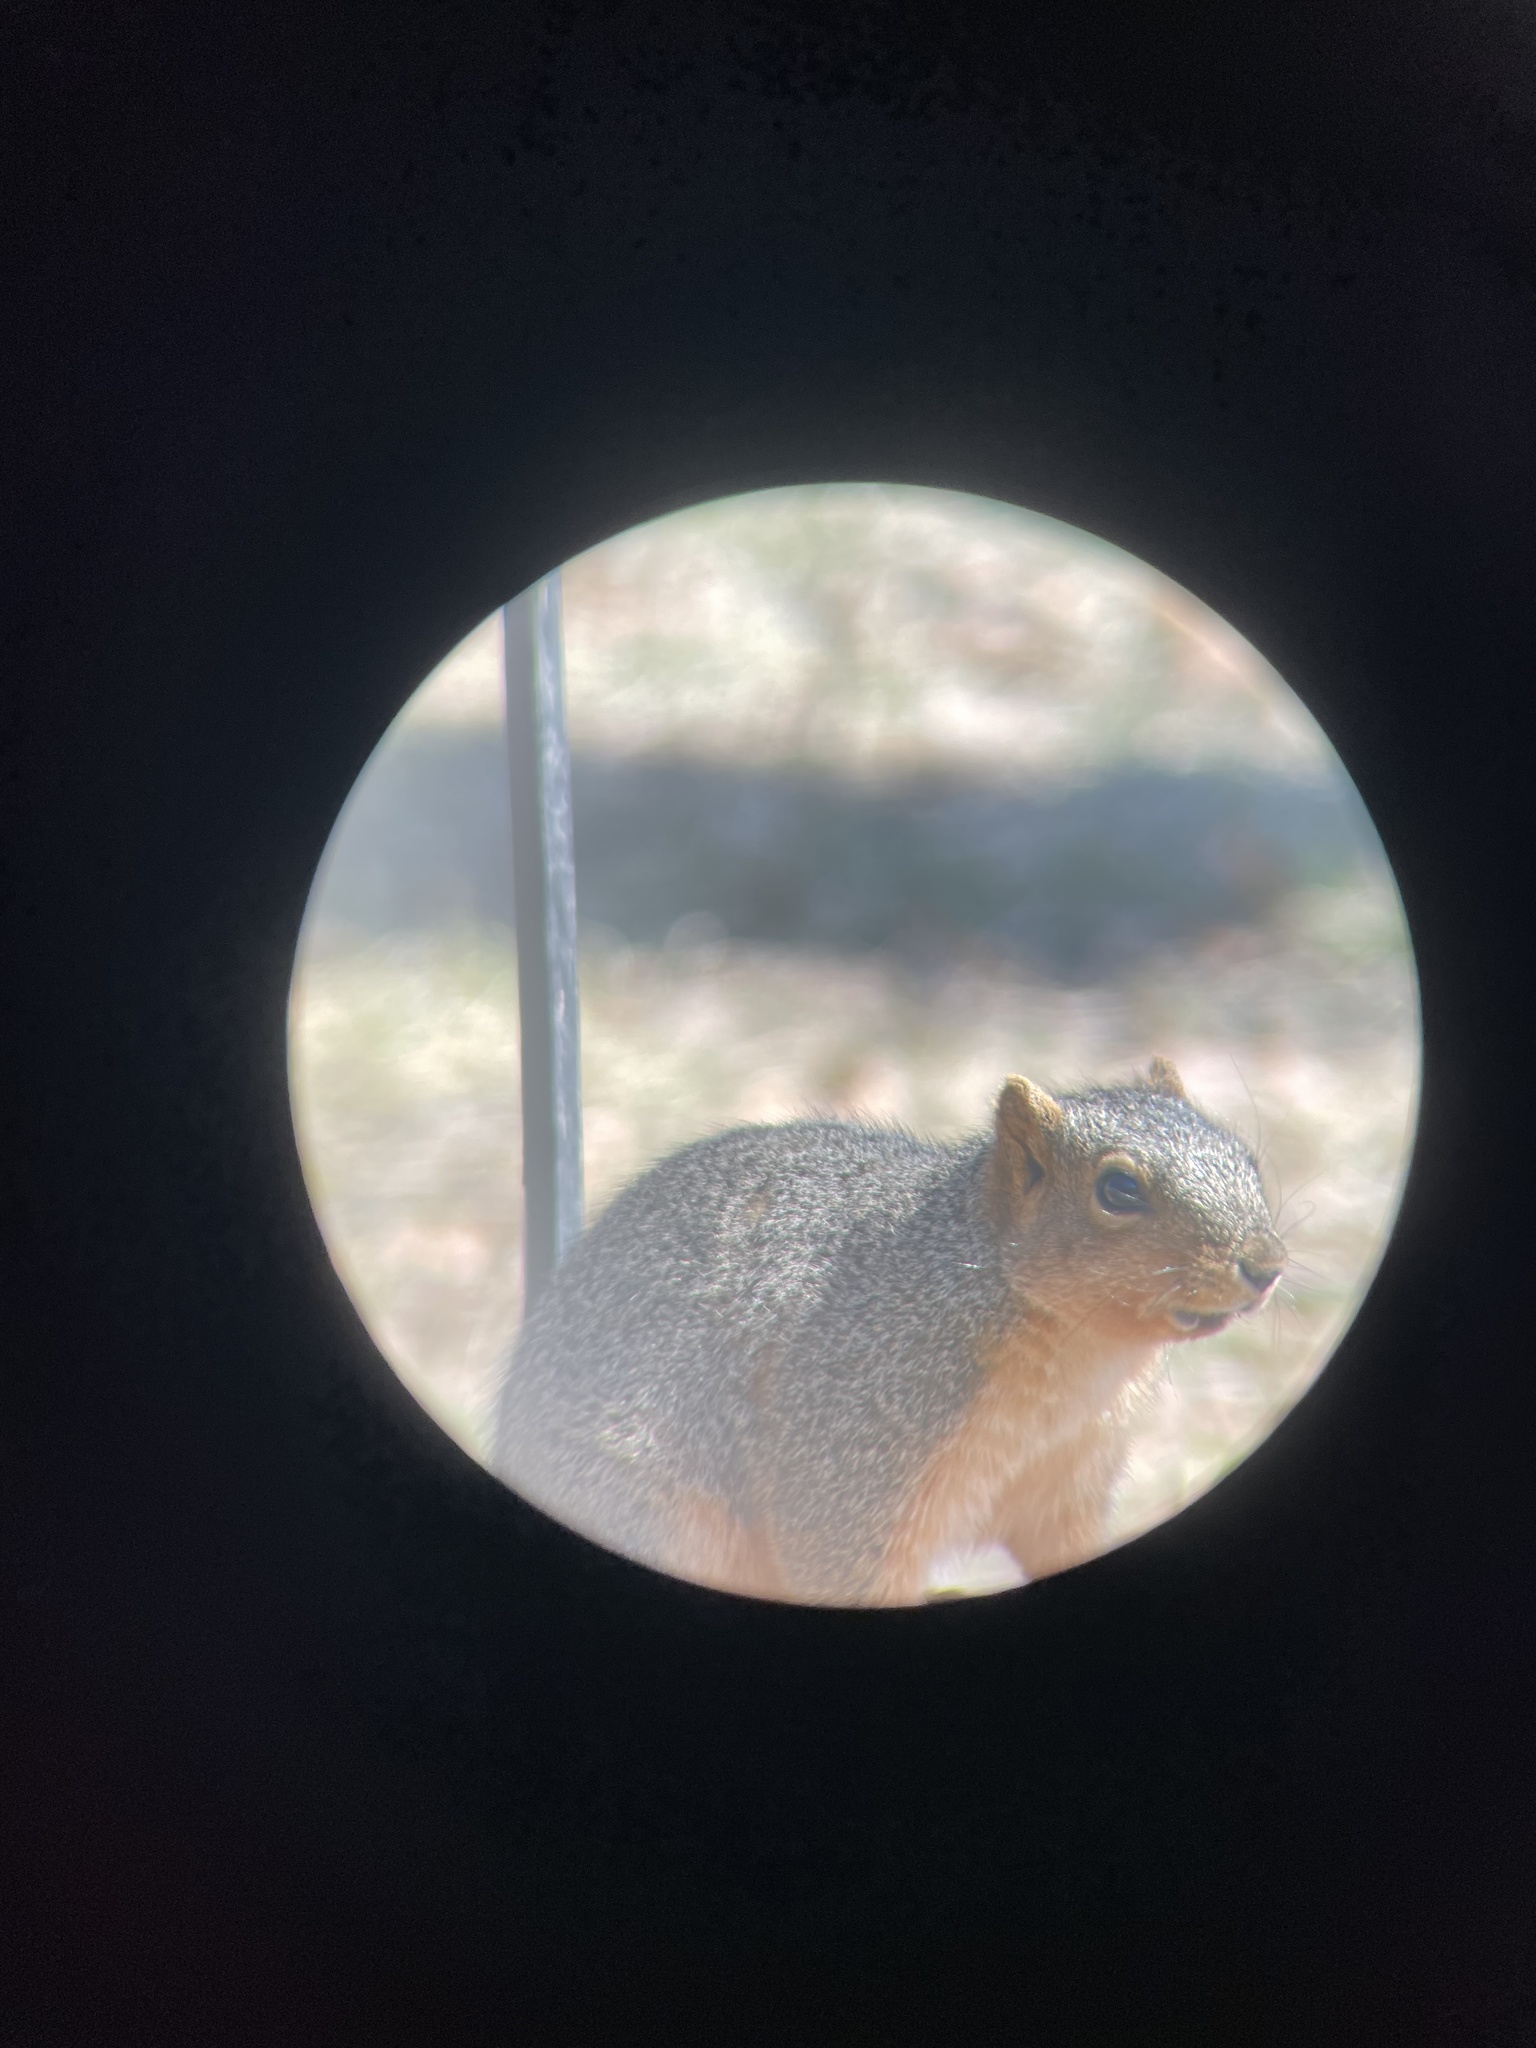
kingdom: Animalia
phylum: Chordata
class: Mammalia
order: Rodentia
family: Sciuridae
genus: Sciurus
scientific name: Sciurus niger
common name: Fox squirrel
